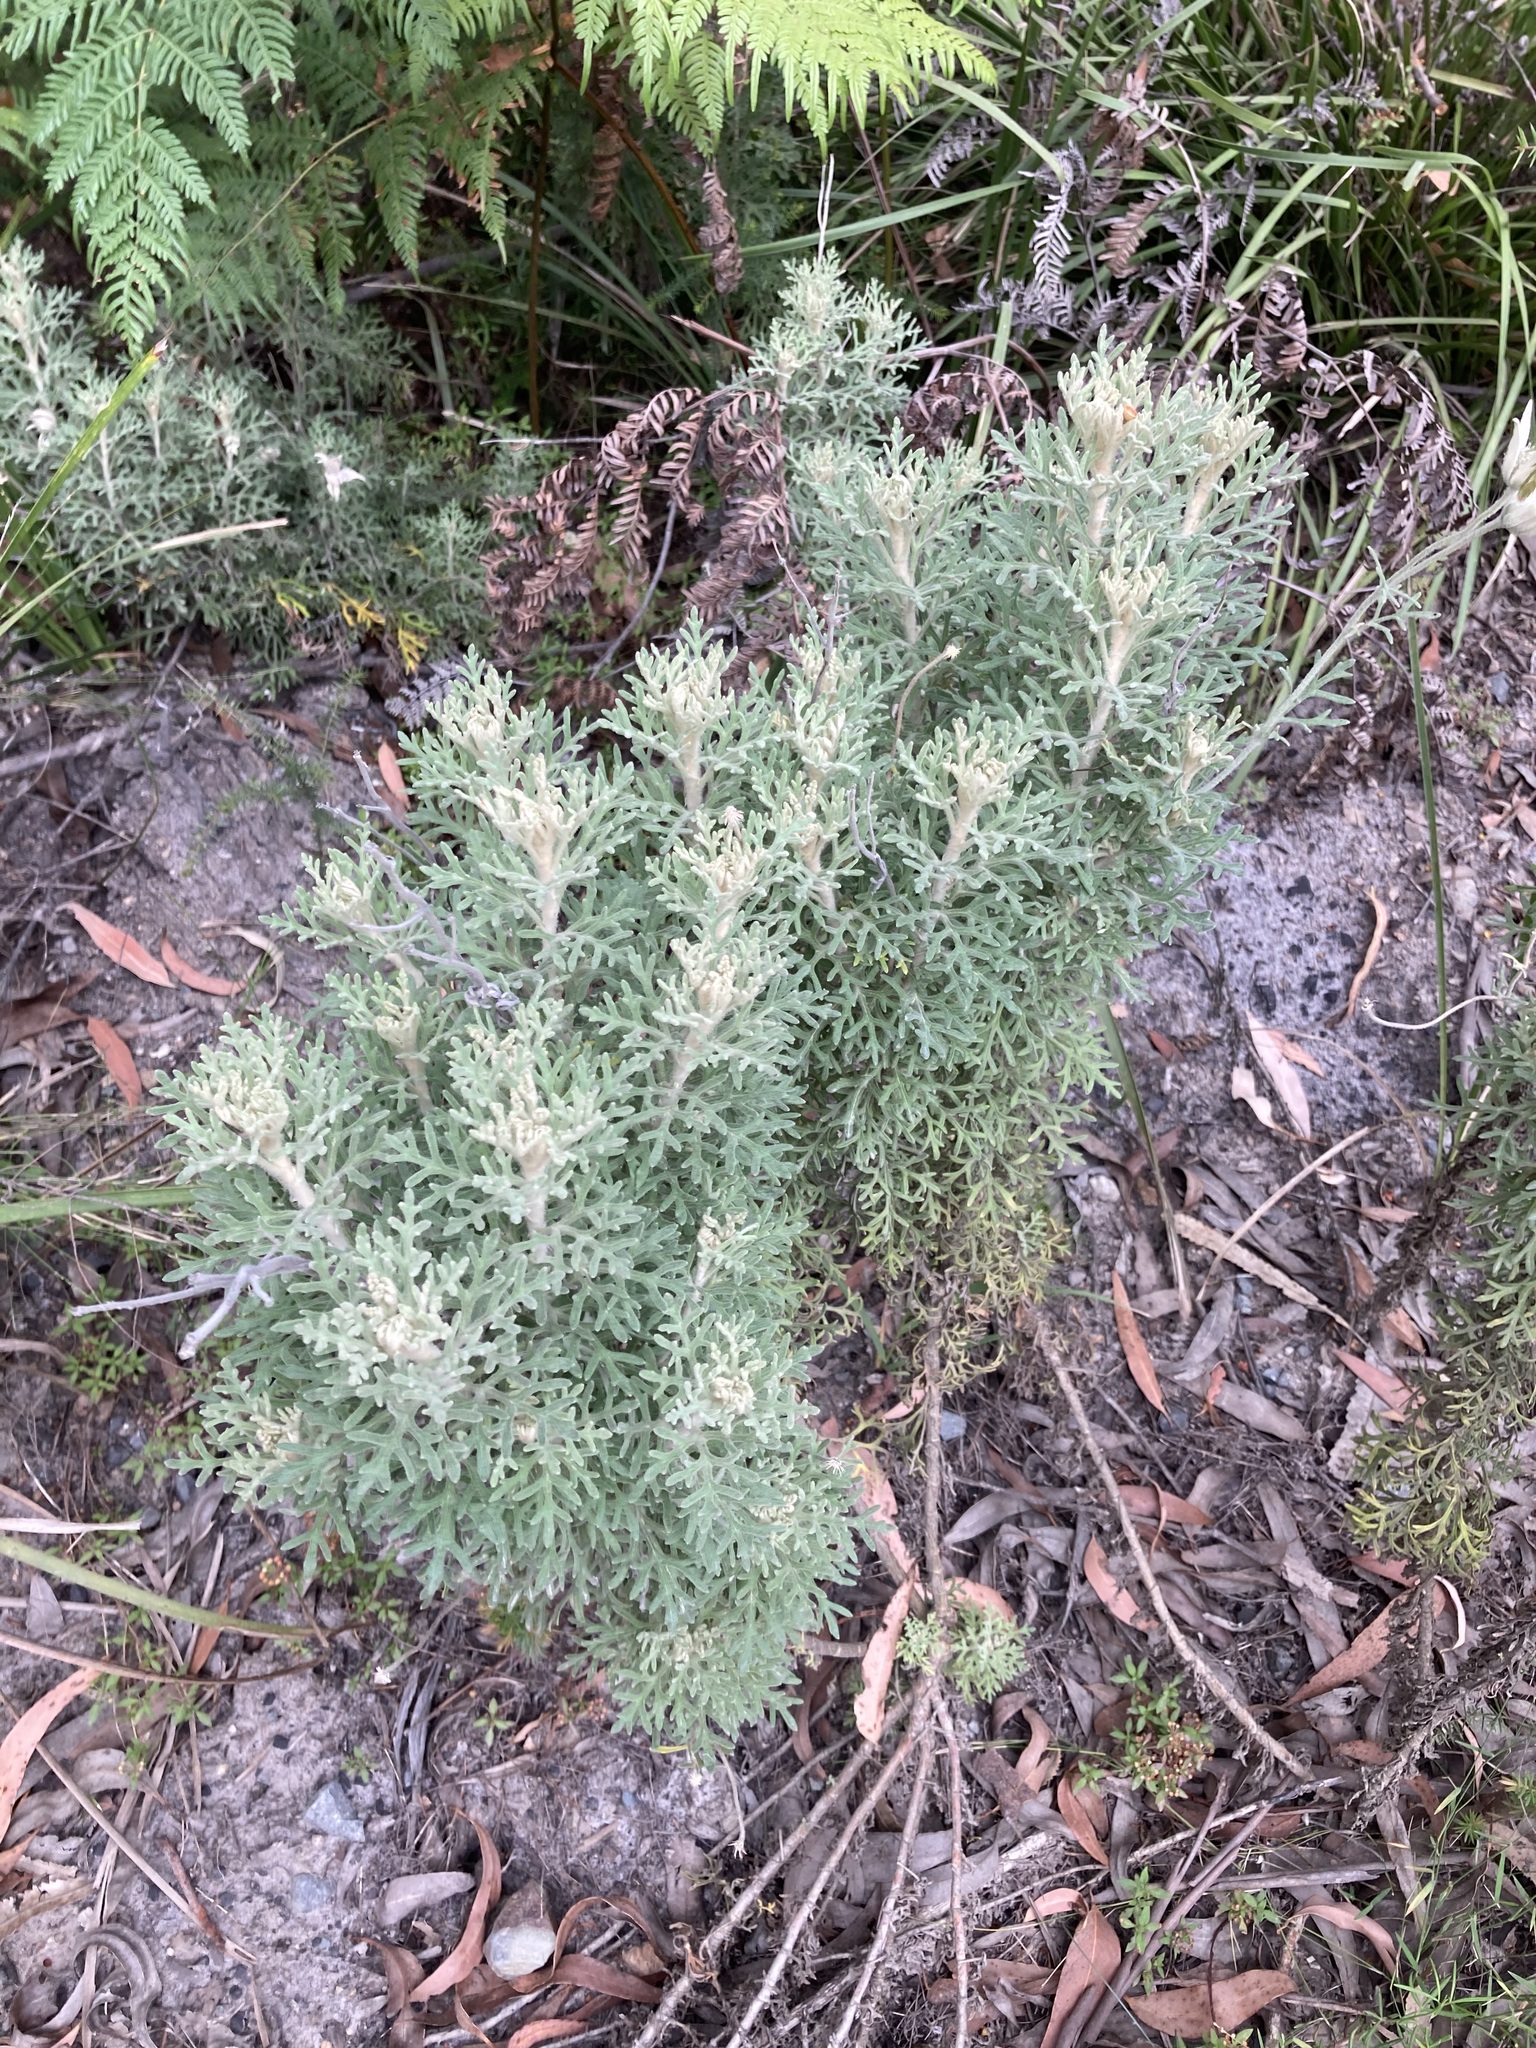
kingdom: Plantae
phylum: Tracheophyta
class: Magnoliopsida
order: Apiales
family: Apiaceae
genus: Actinotus
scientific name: Actinotus helianthi
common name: Flannel-flower
